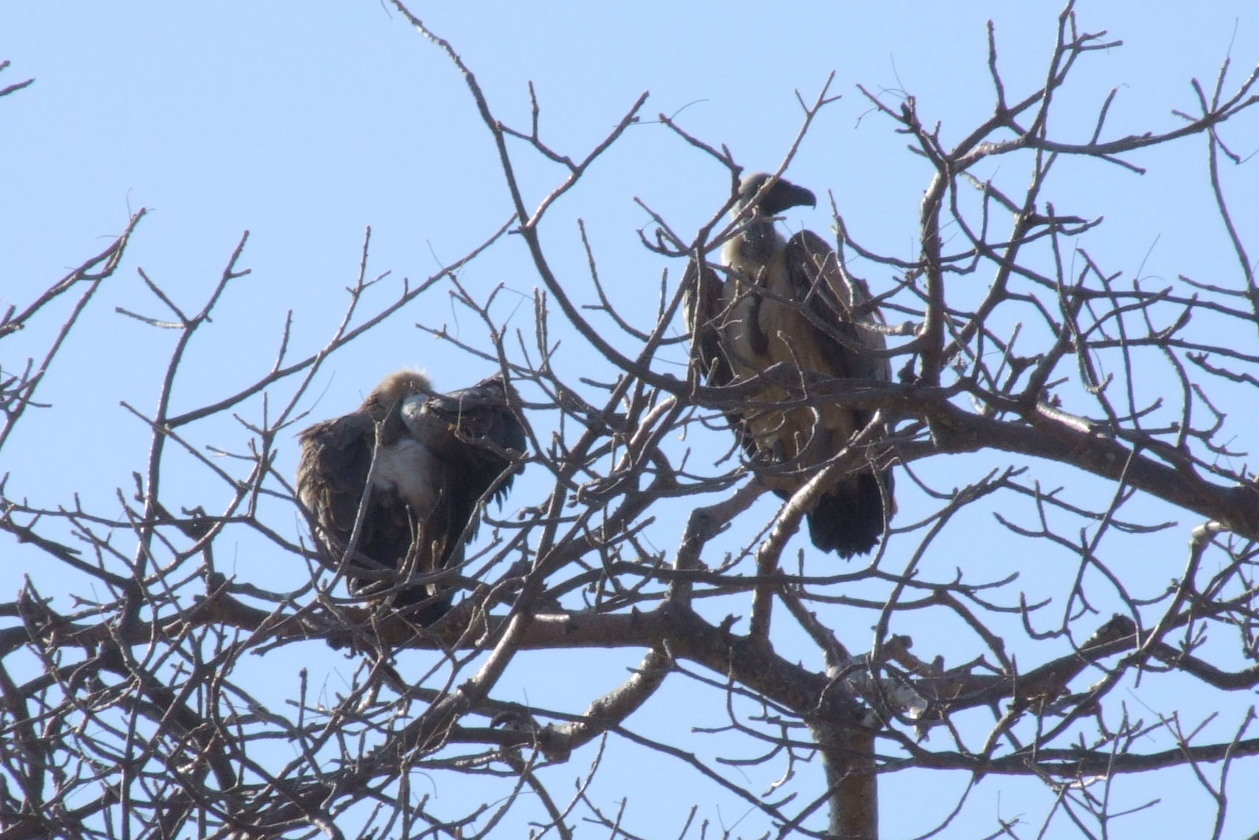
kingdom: Animalia
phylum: Chordata
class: Aves
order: Accipitriformes
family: Accipitridae
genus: Gyps
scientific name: Gyps africanus
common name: White-backed vulture
